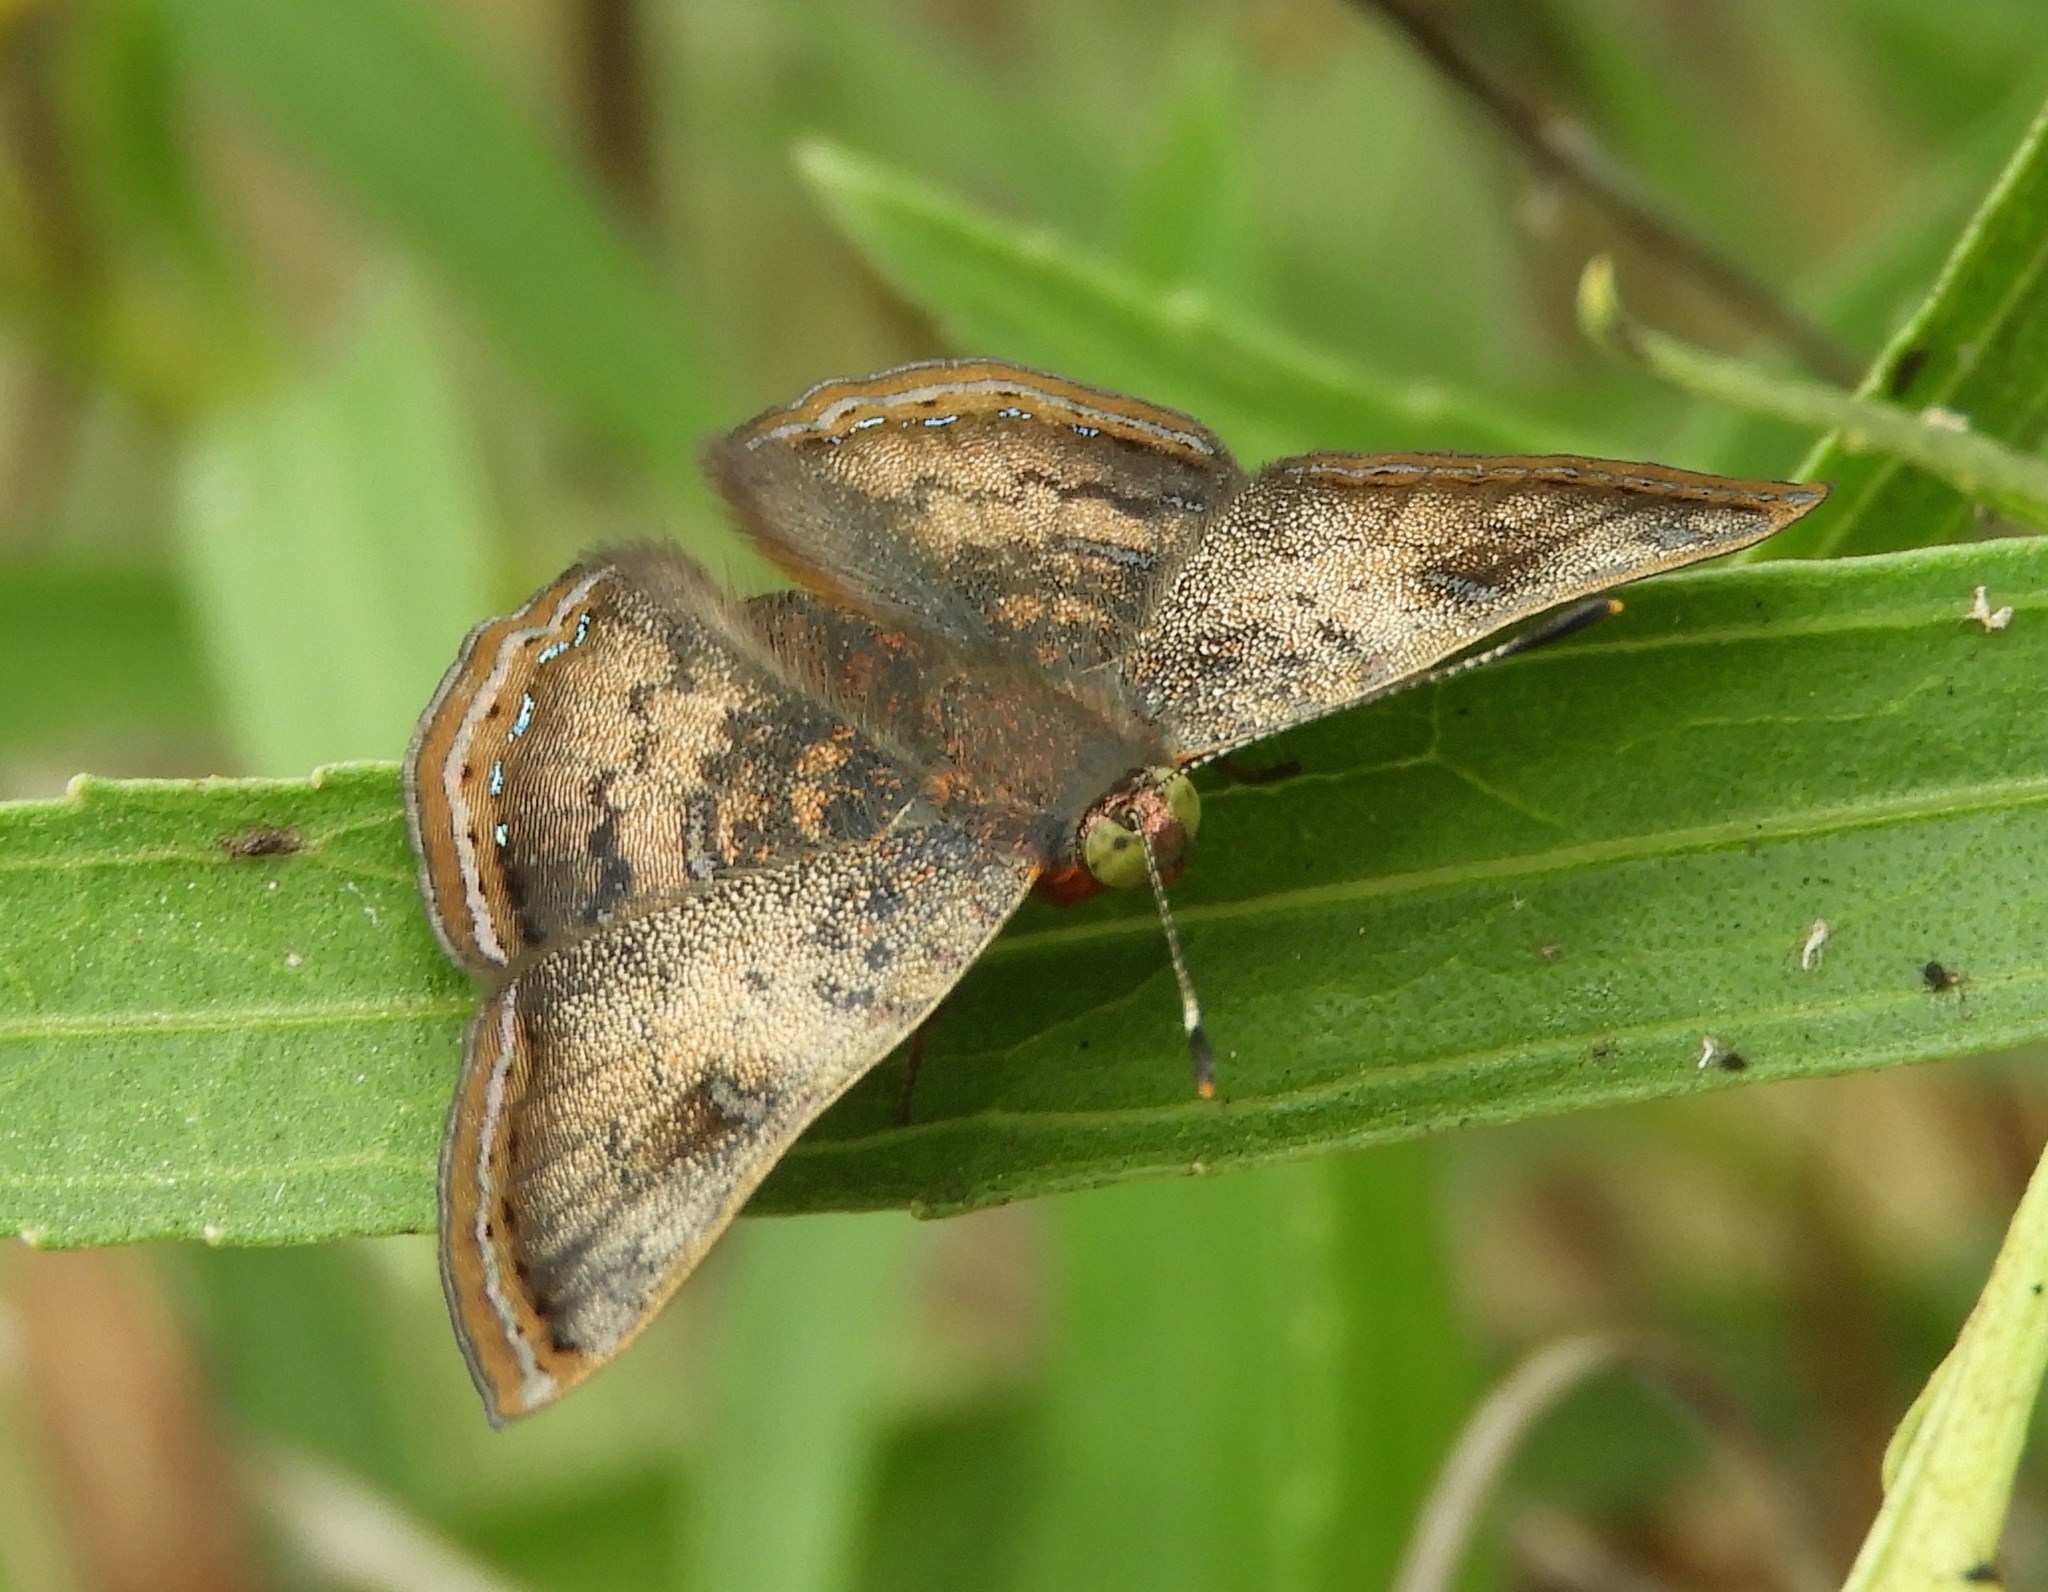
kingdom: Animalia
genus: Caria
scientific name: Caria ino
